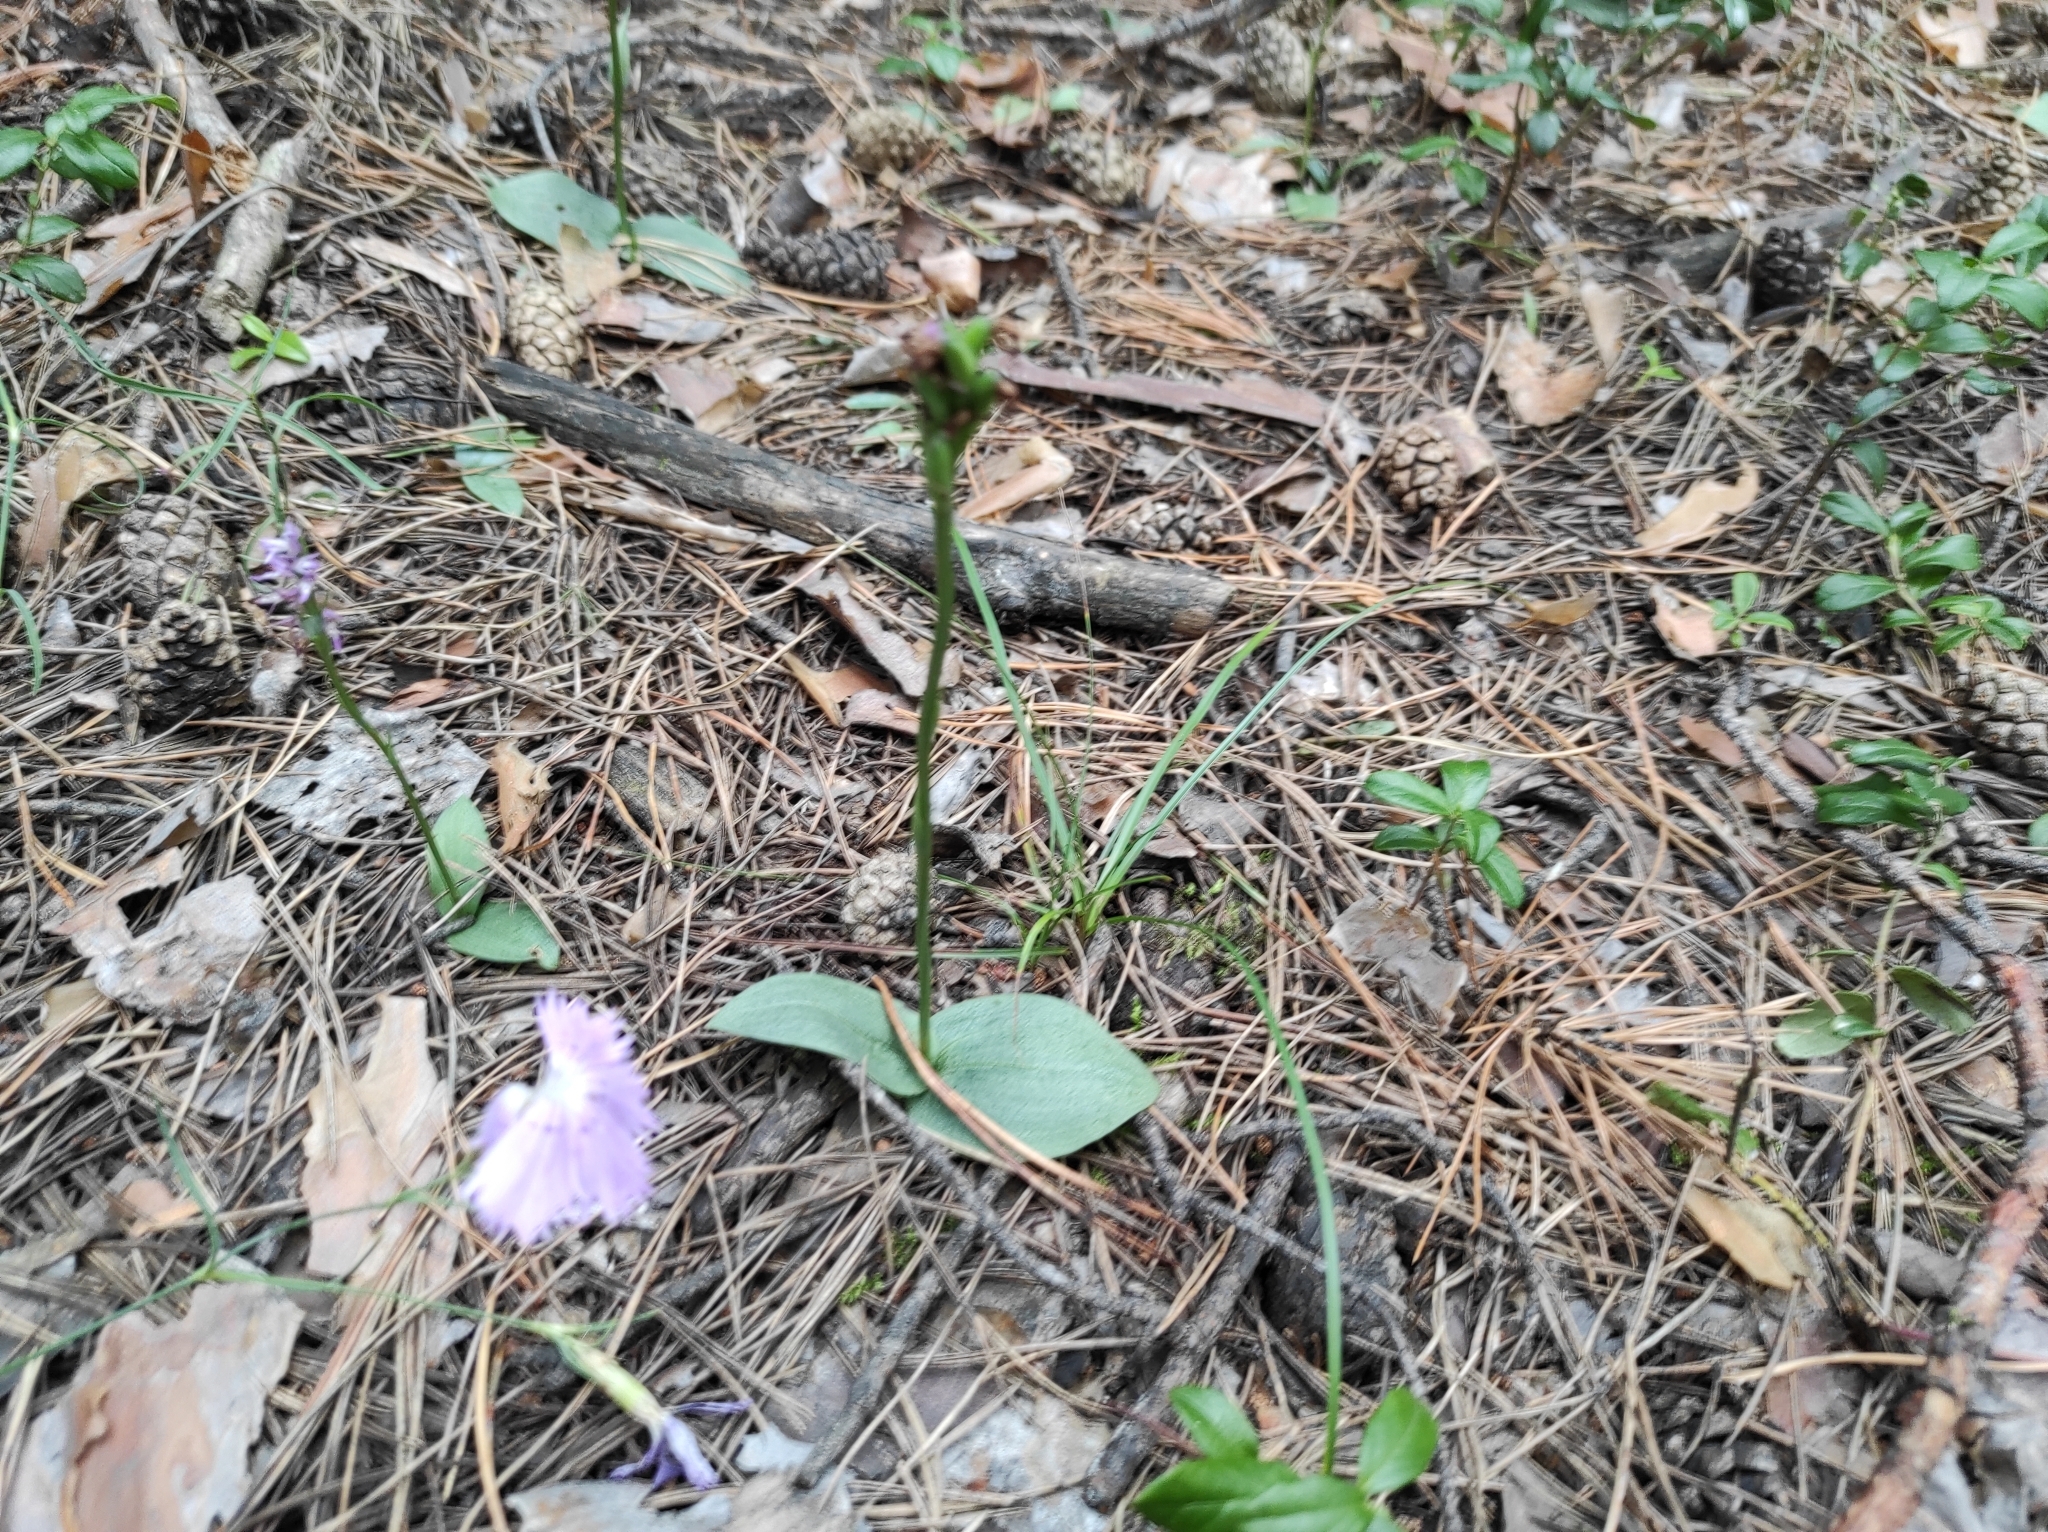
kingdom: Plantae
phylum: Tracheophyta
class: Liliopsida
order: Asparagales
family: Orchidaceae
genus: Hemipilia
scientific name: Hemipilia cucullata
